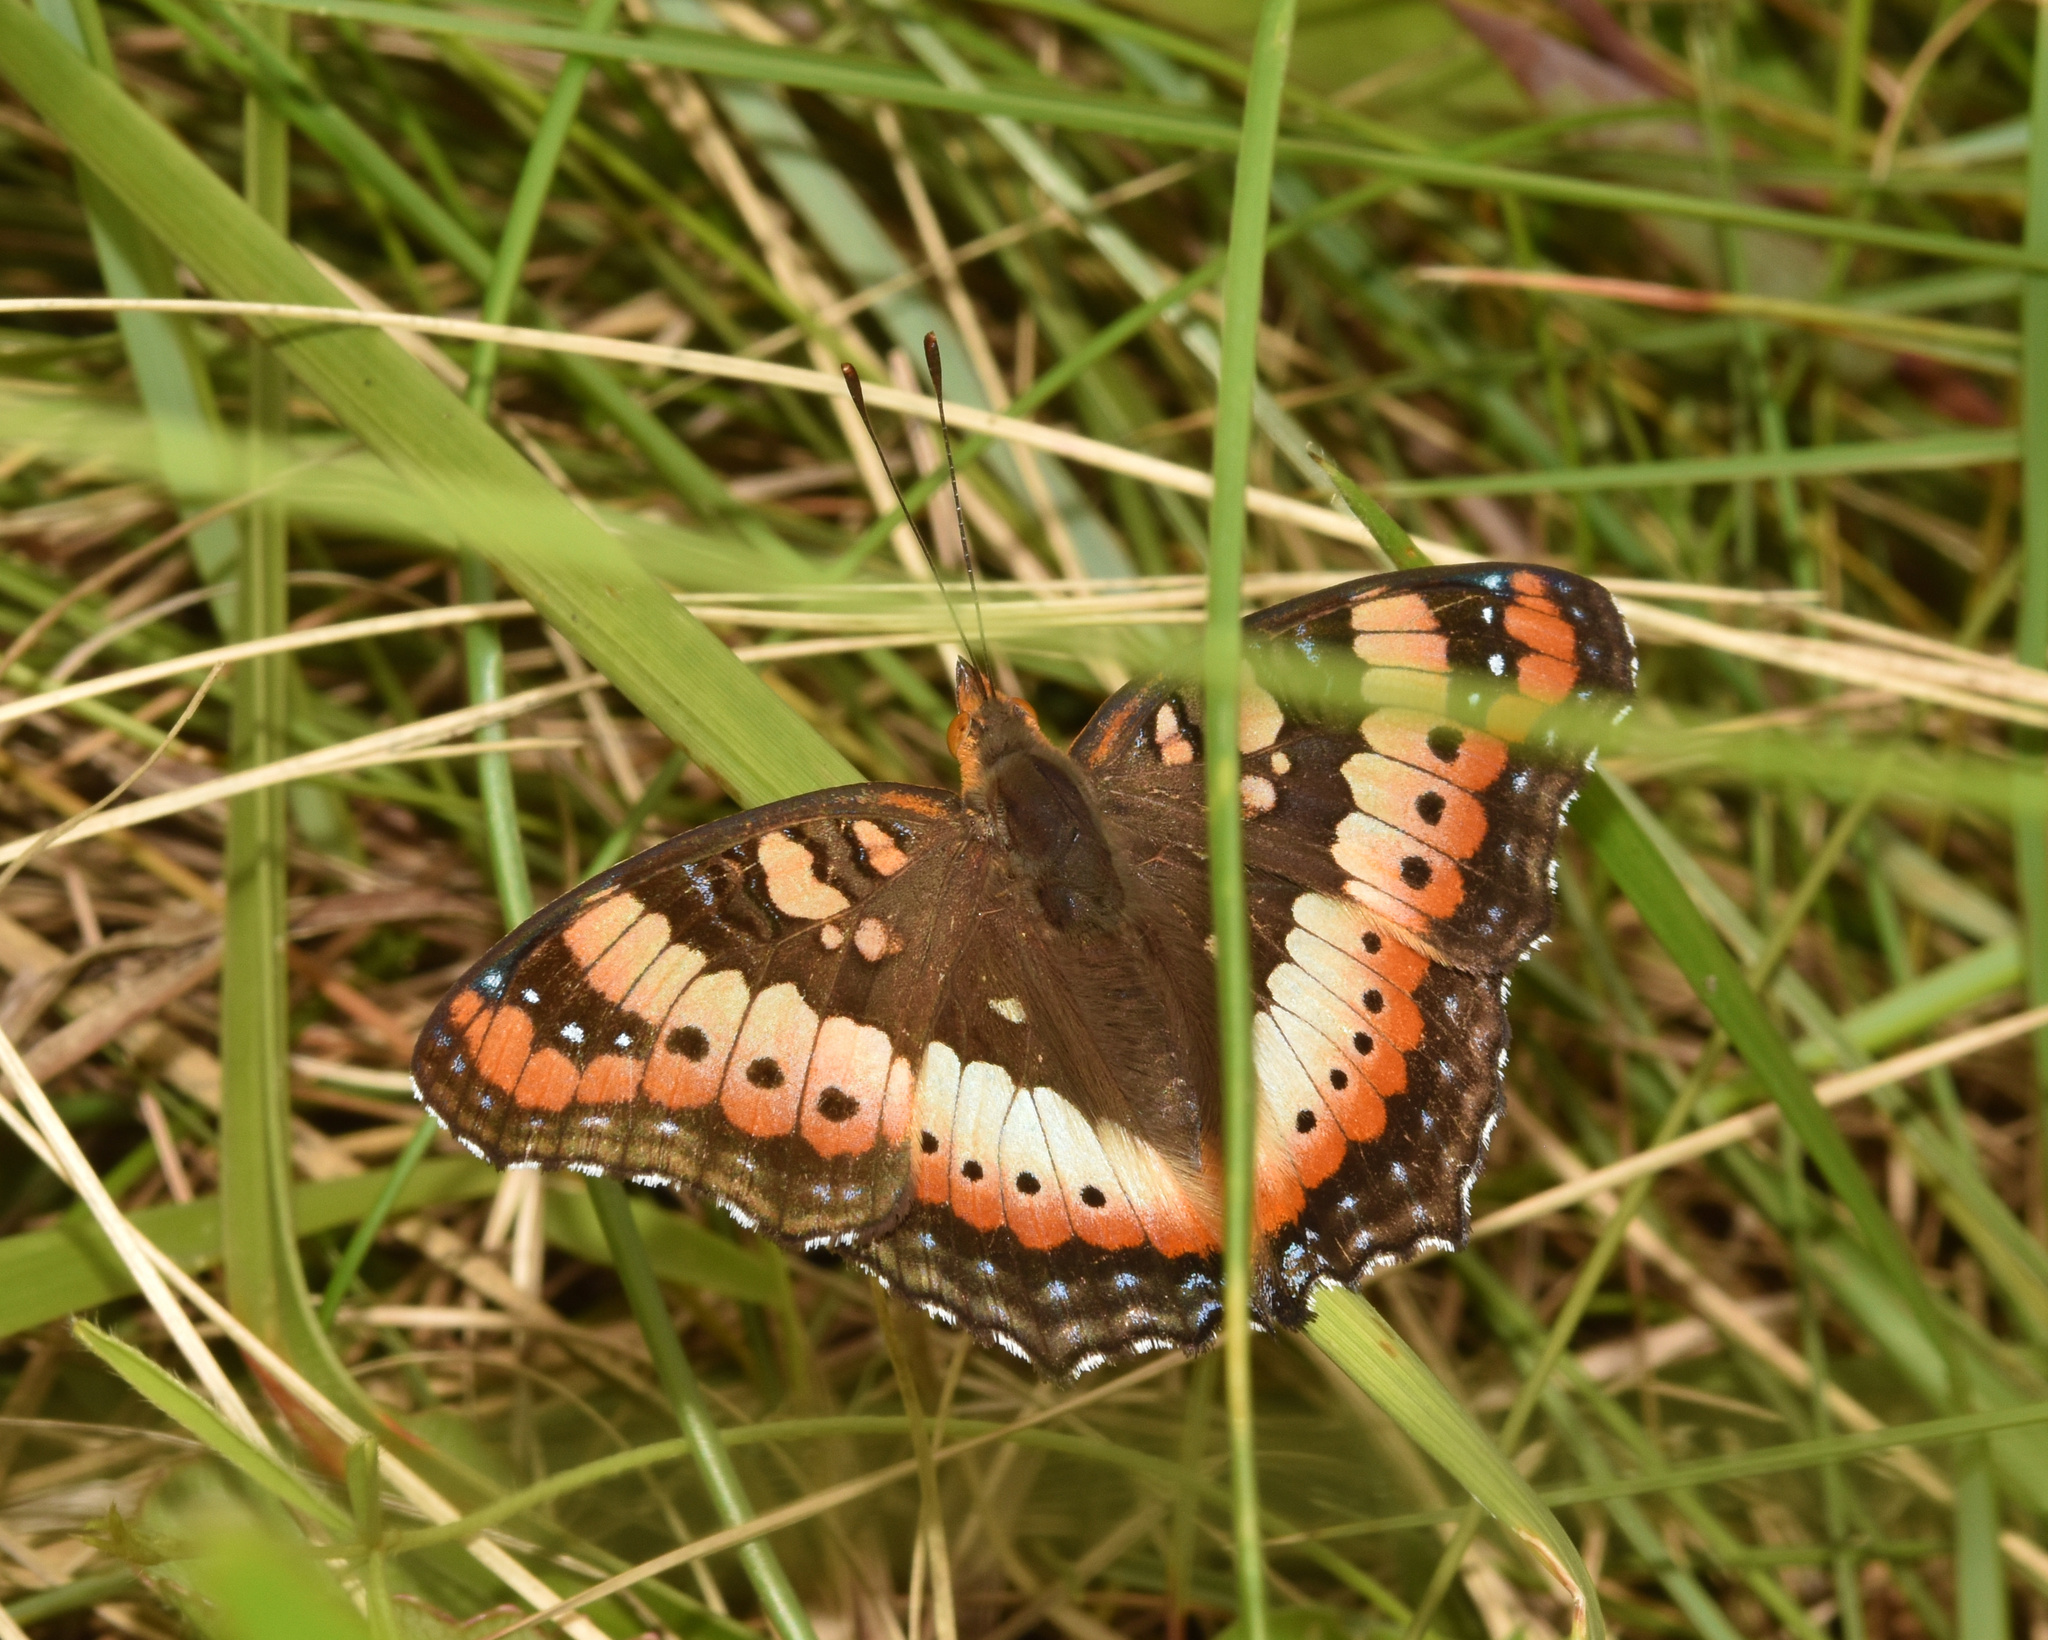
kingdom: Animalia
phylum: Arthropoda
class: Insecta
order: Lepidoptera
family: Nymphalidae
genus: Precis
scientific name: Precis ceryne
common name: Marsh commodore
